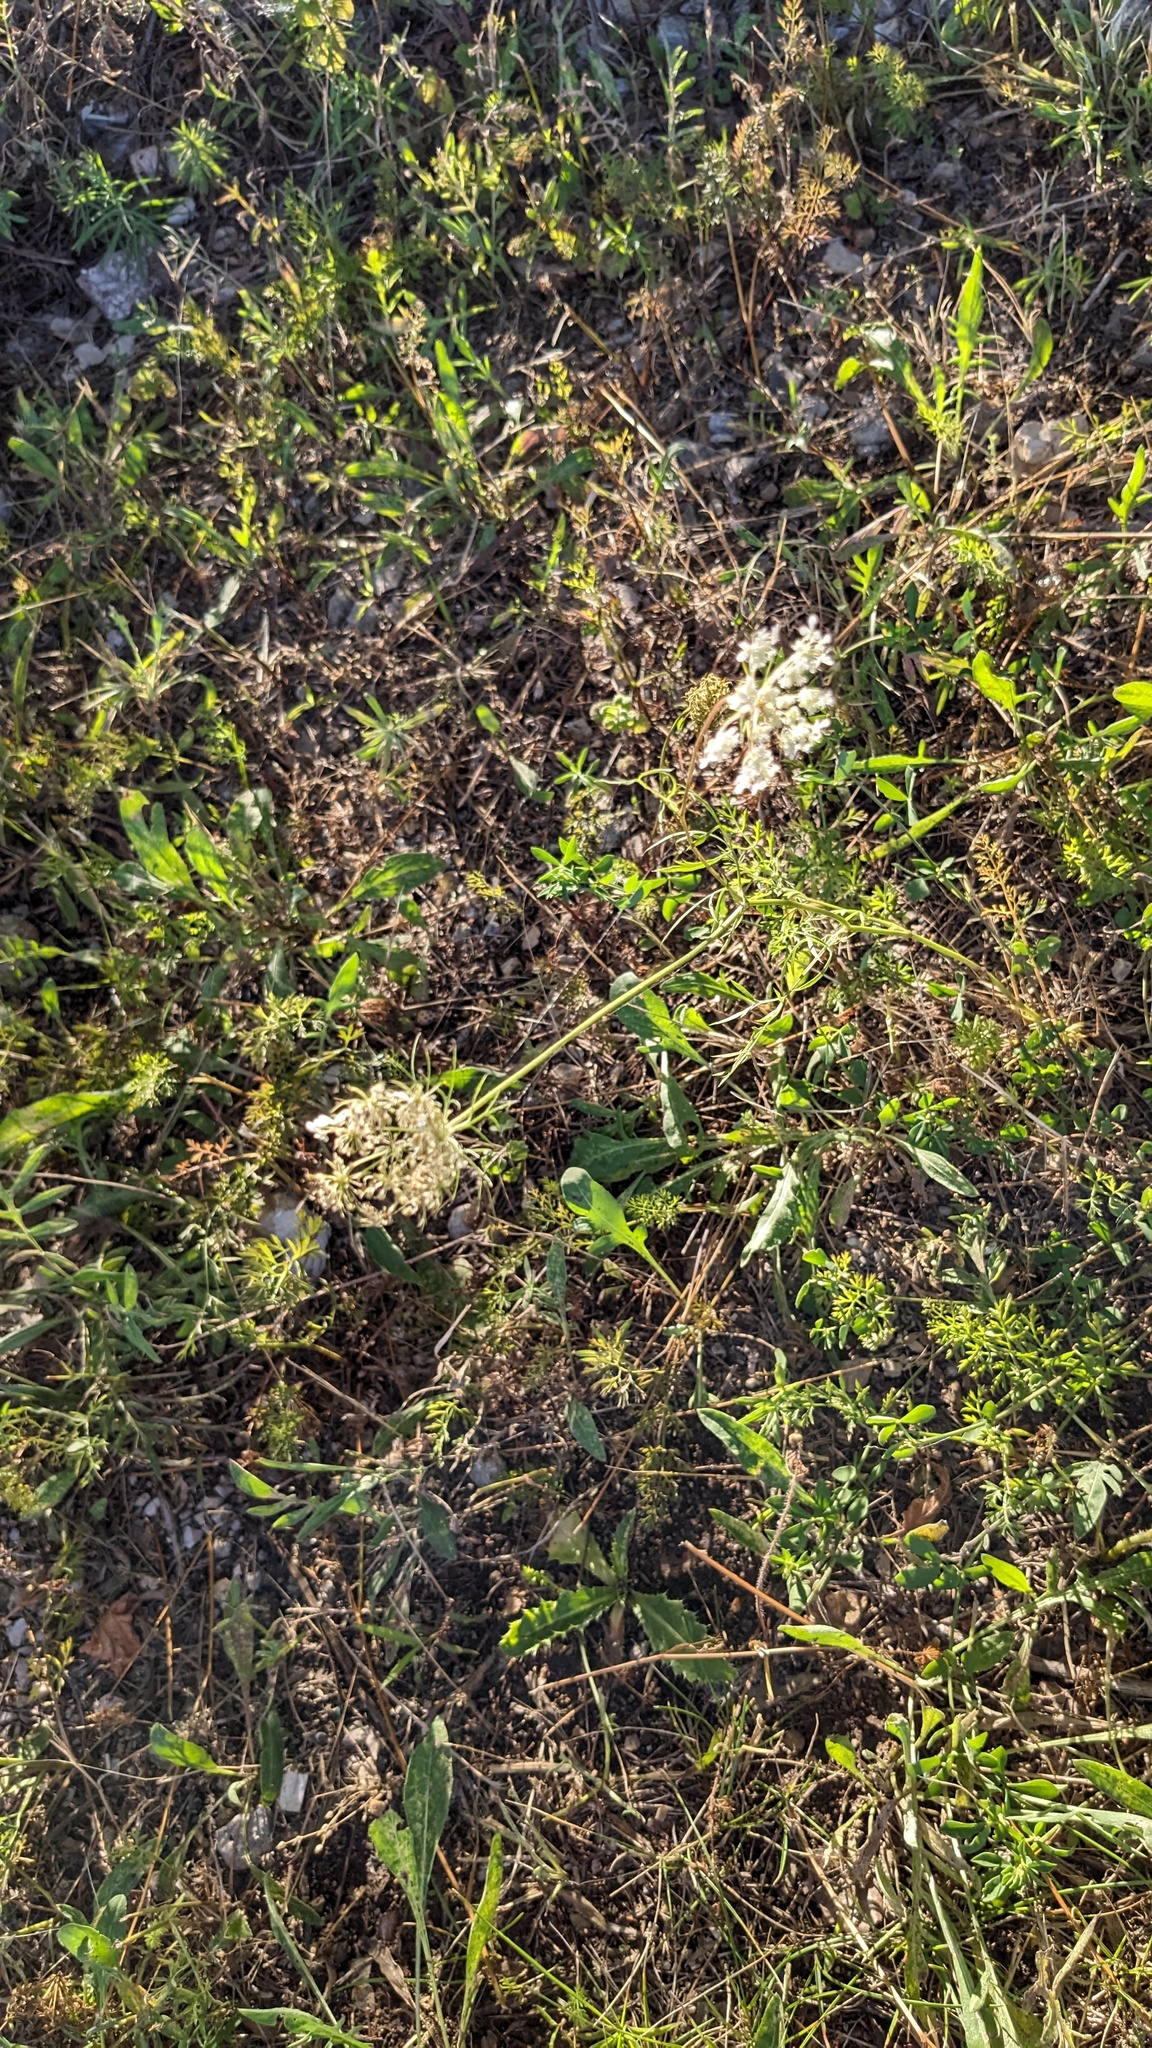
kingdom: Plantae
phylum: Tracheophyta
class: Magnoliopsida
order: Apiales
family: Apiaceae
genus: Daucus
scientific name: Daucus carota
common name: Wild carrot
